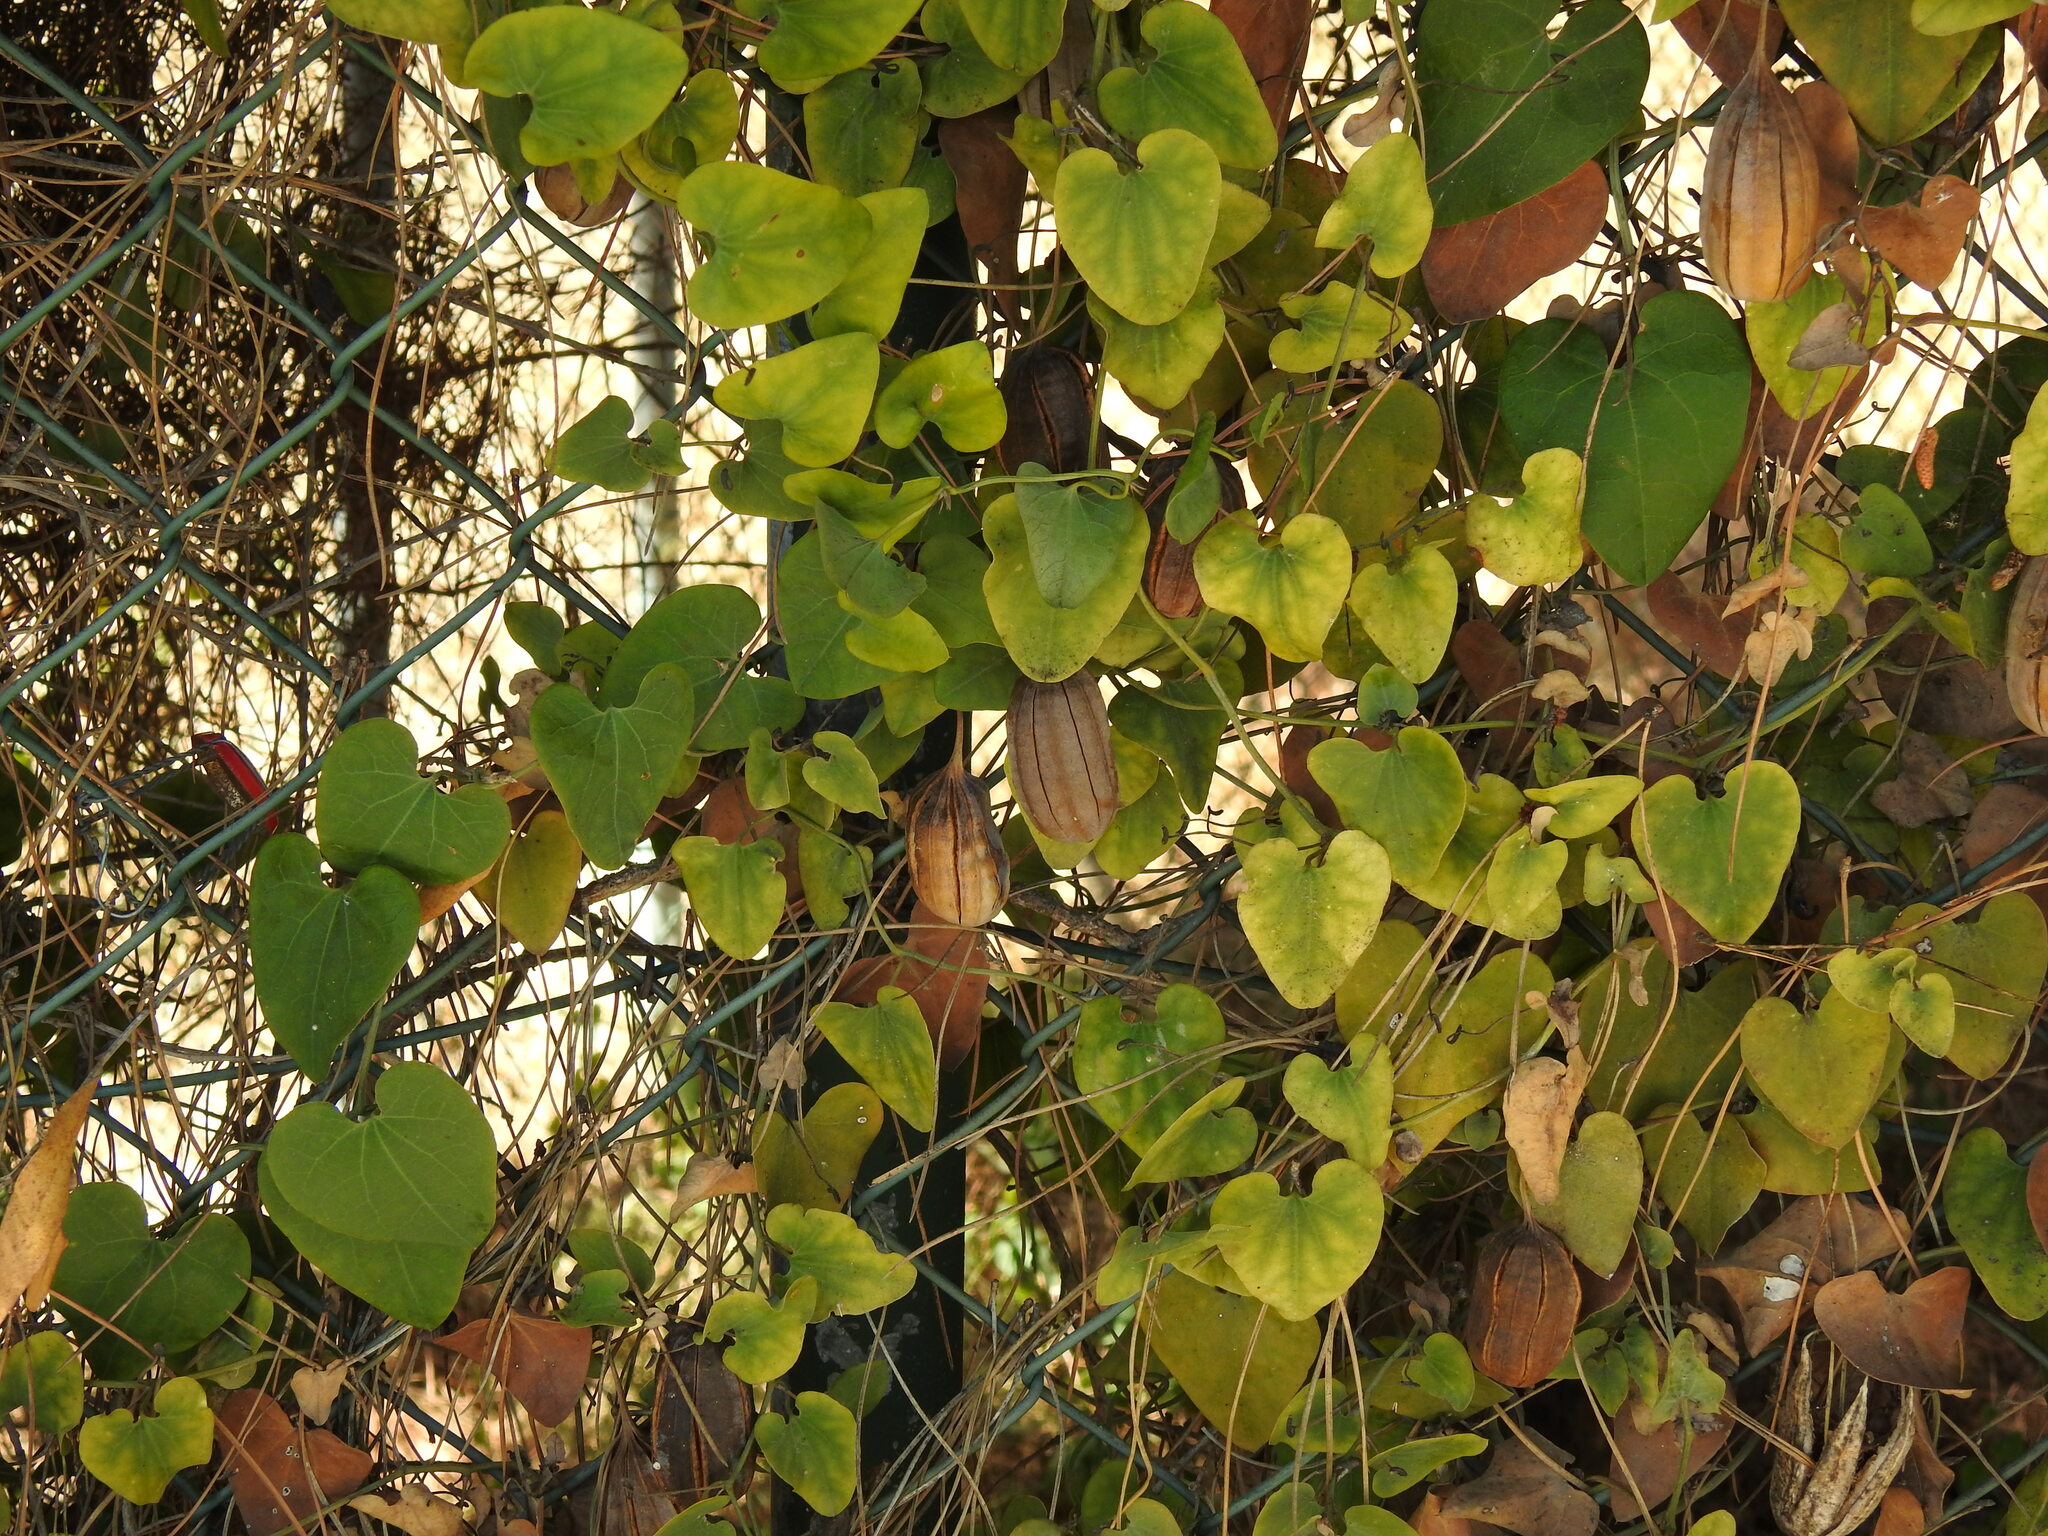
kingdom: Plantae
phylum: Tracheophyta
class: Magnoliopsida
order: Piperales
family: Aristolochiaceae
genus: Aristolochia
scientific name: Aristolochia baetica
